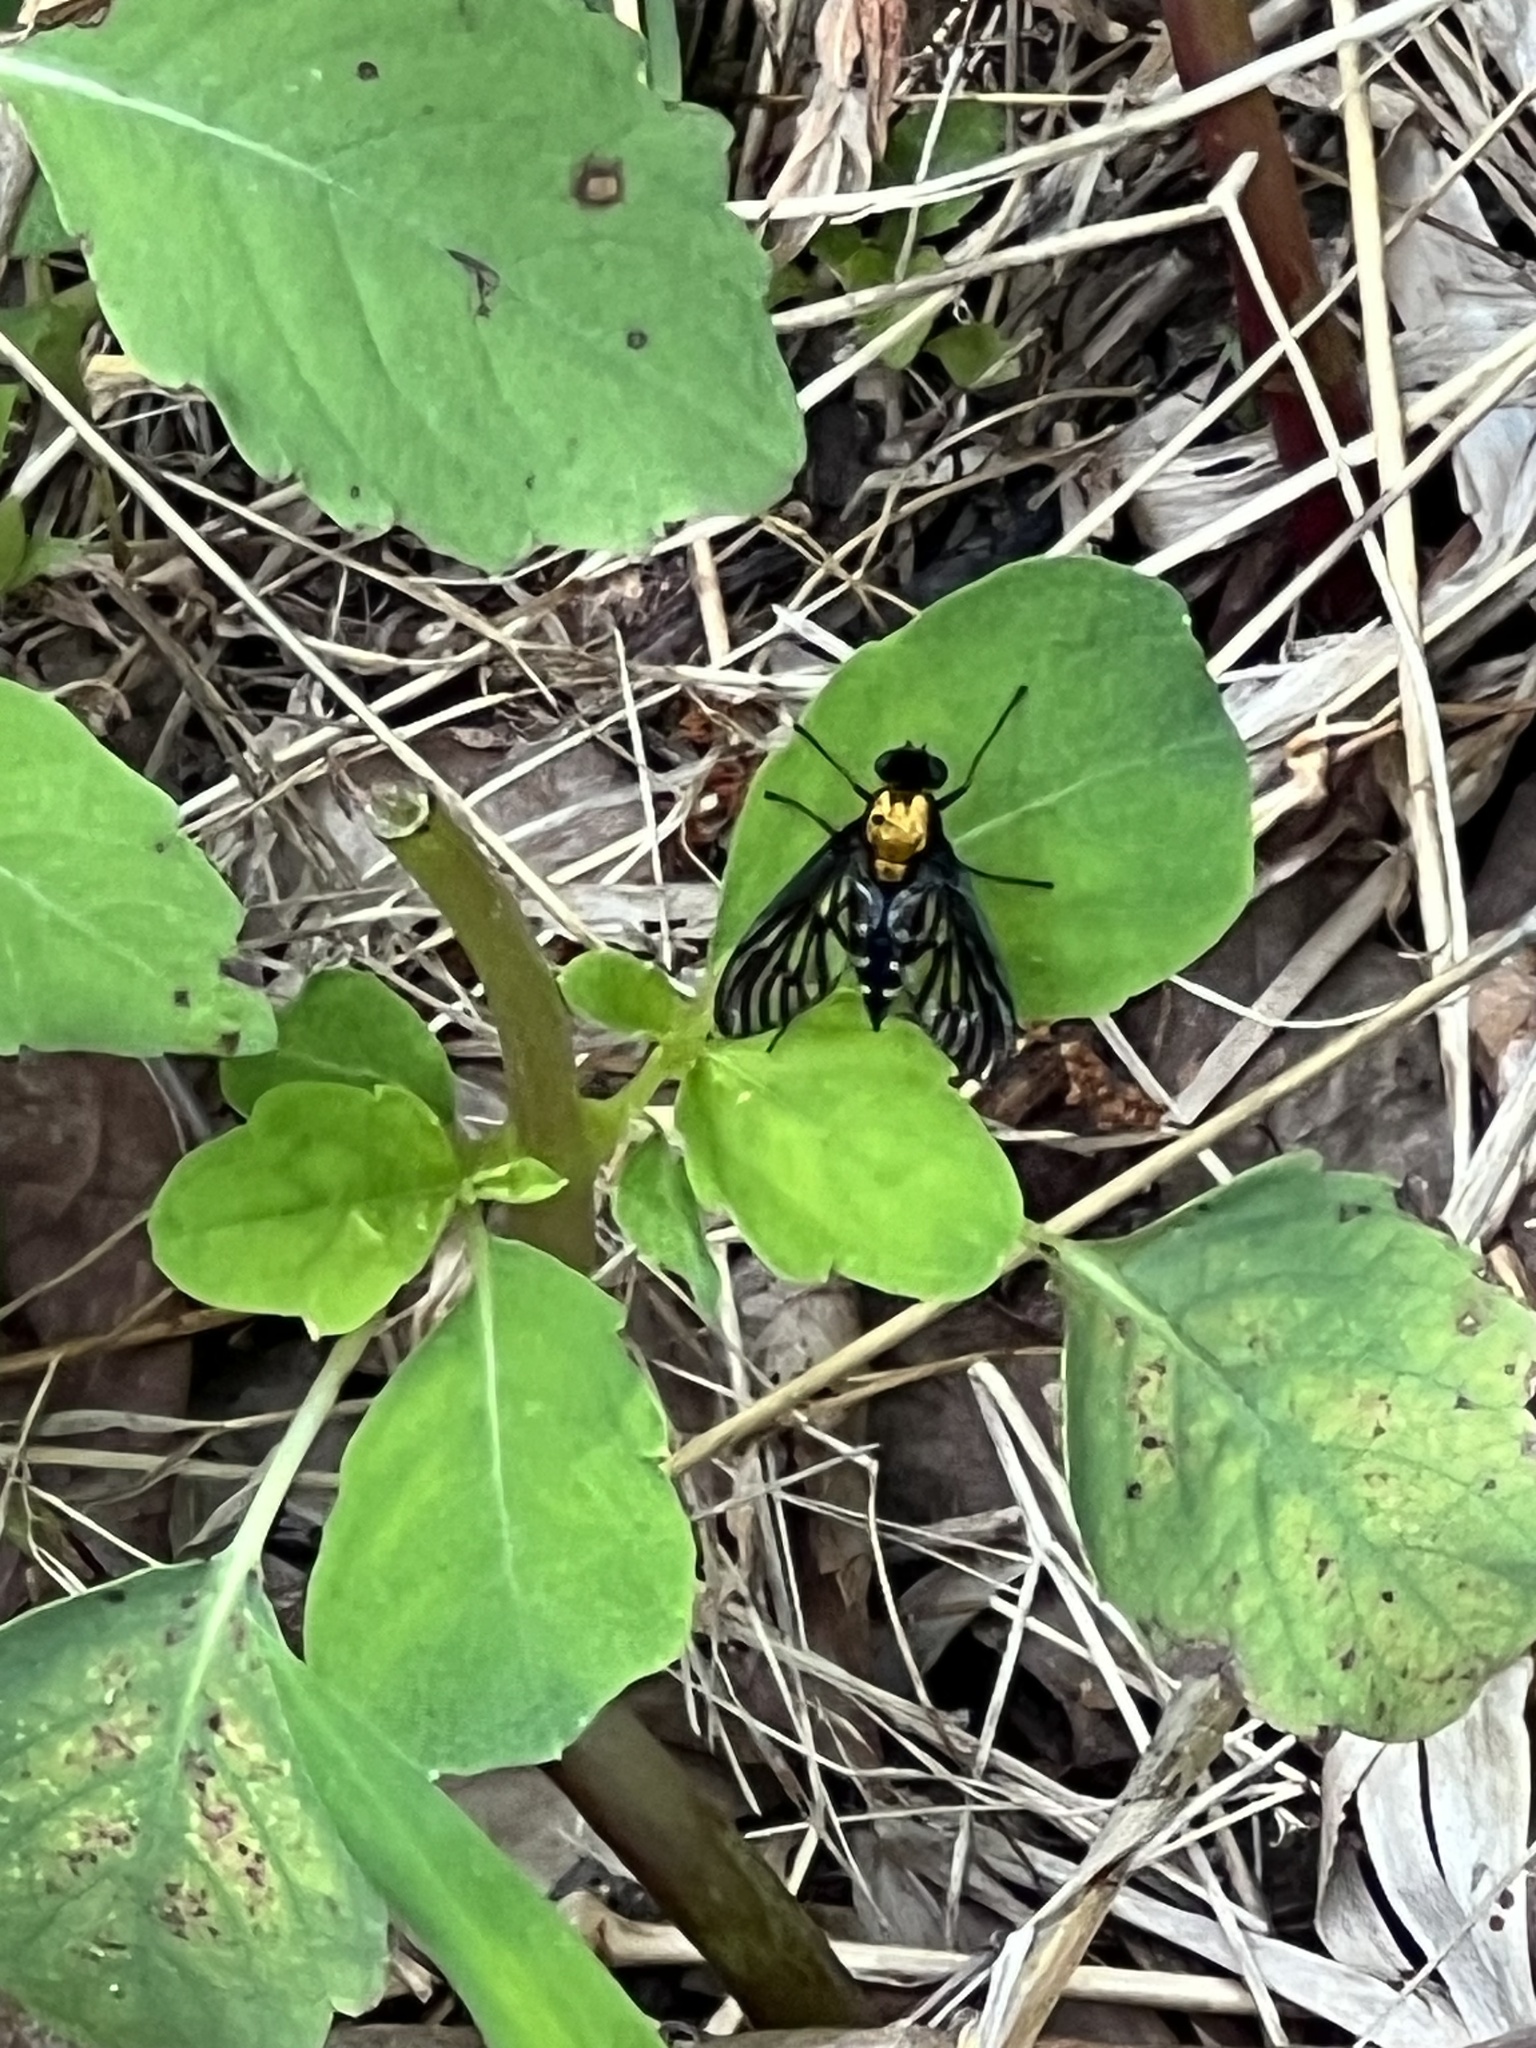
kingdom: Animalia
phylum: Arthropoda
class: Insecta
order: Diptera
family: Rhagionidae
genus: Chrysopilus
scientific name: Chrysopilus thoracicus
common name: Golden-backed snipe fly
